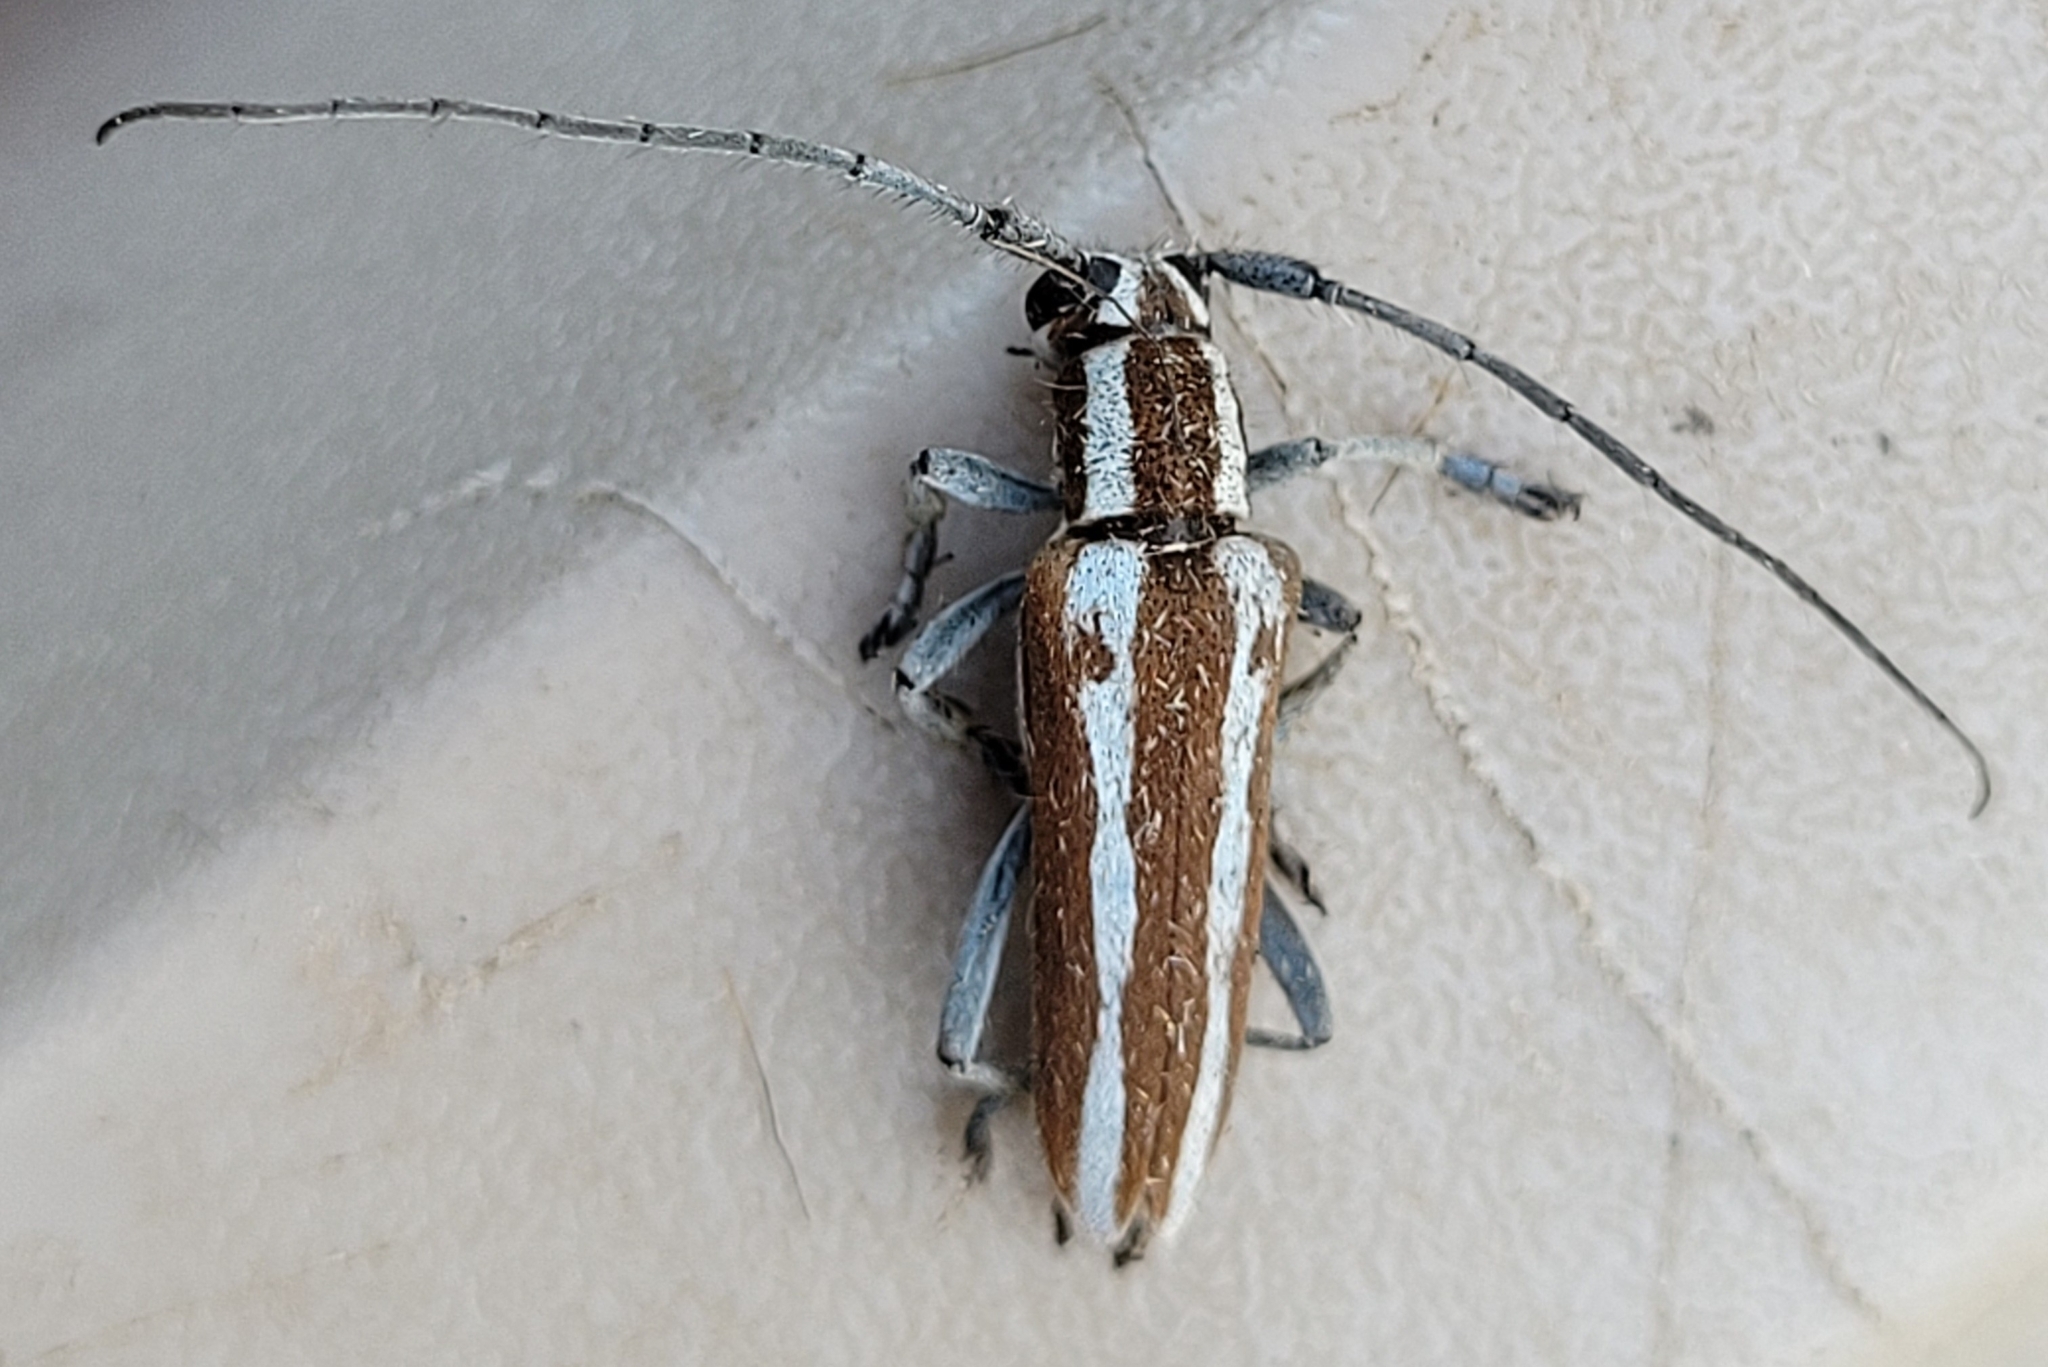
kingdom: Animalia
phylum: Arthropoda
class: Insecta
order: Coleoptera
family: Cerambycidae
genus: Saperda
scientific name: Saperda candida
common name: Round-headed borer
